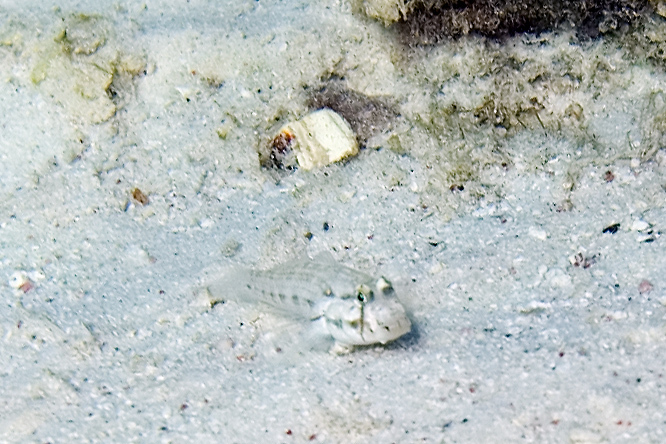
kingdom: Animalia
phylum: Chordata
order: Perciformes
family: Gobiidae
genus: Gnatholepis
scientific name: Gnatholepis thompsoni
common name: Goldspot goby
